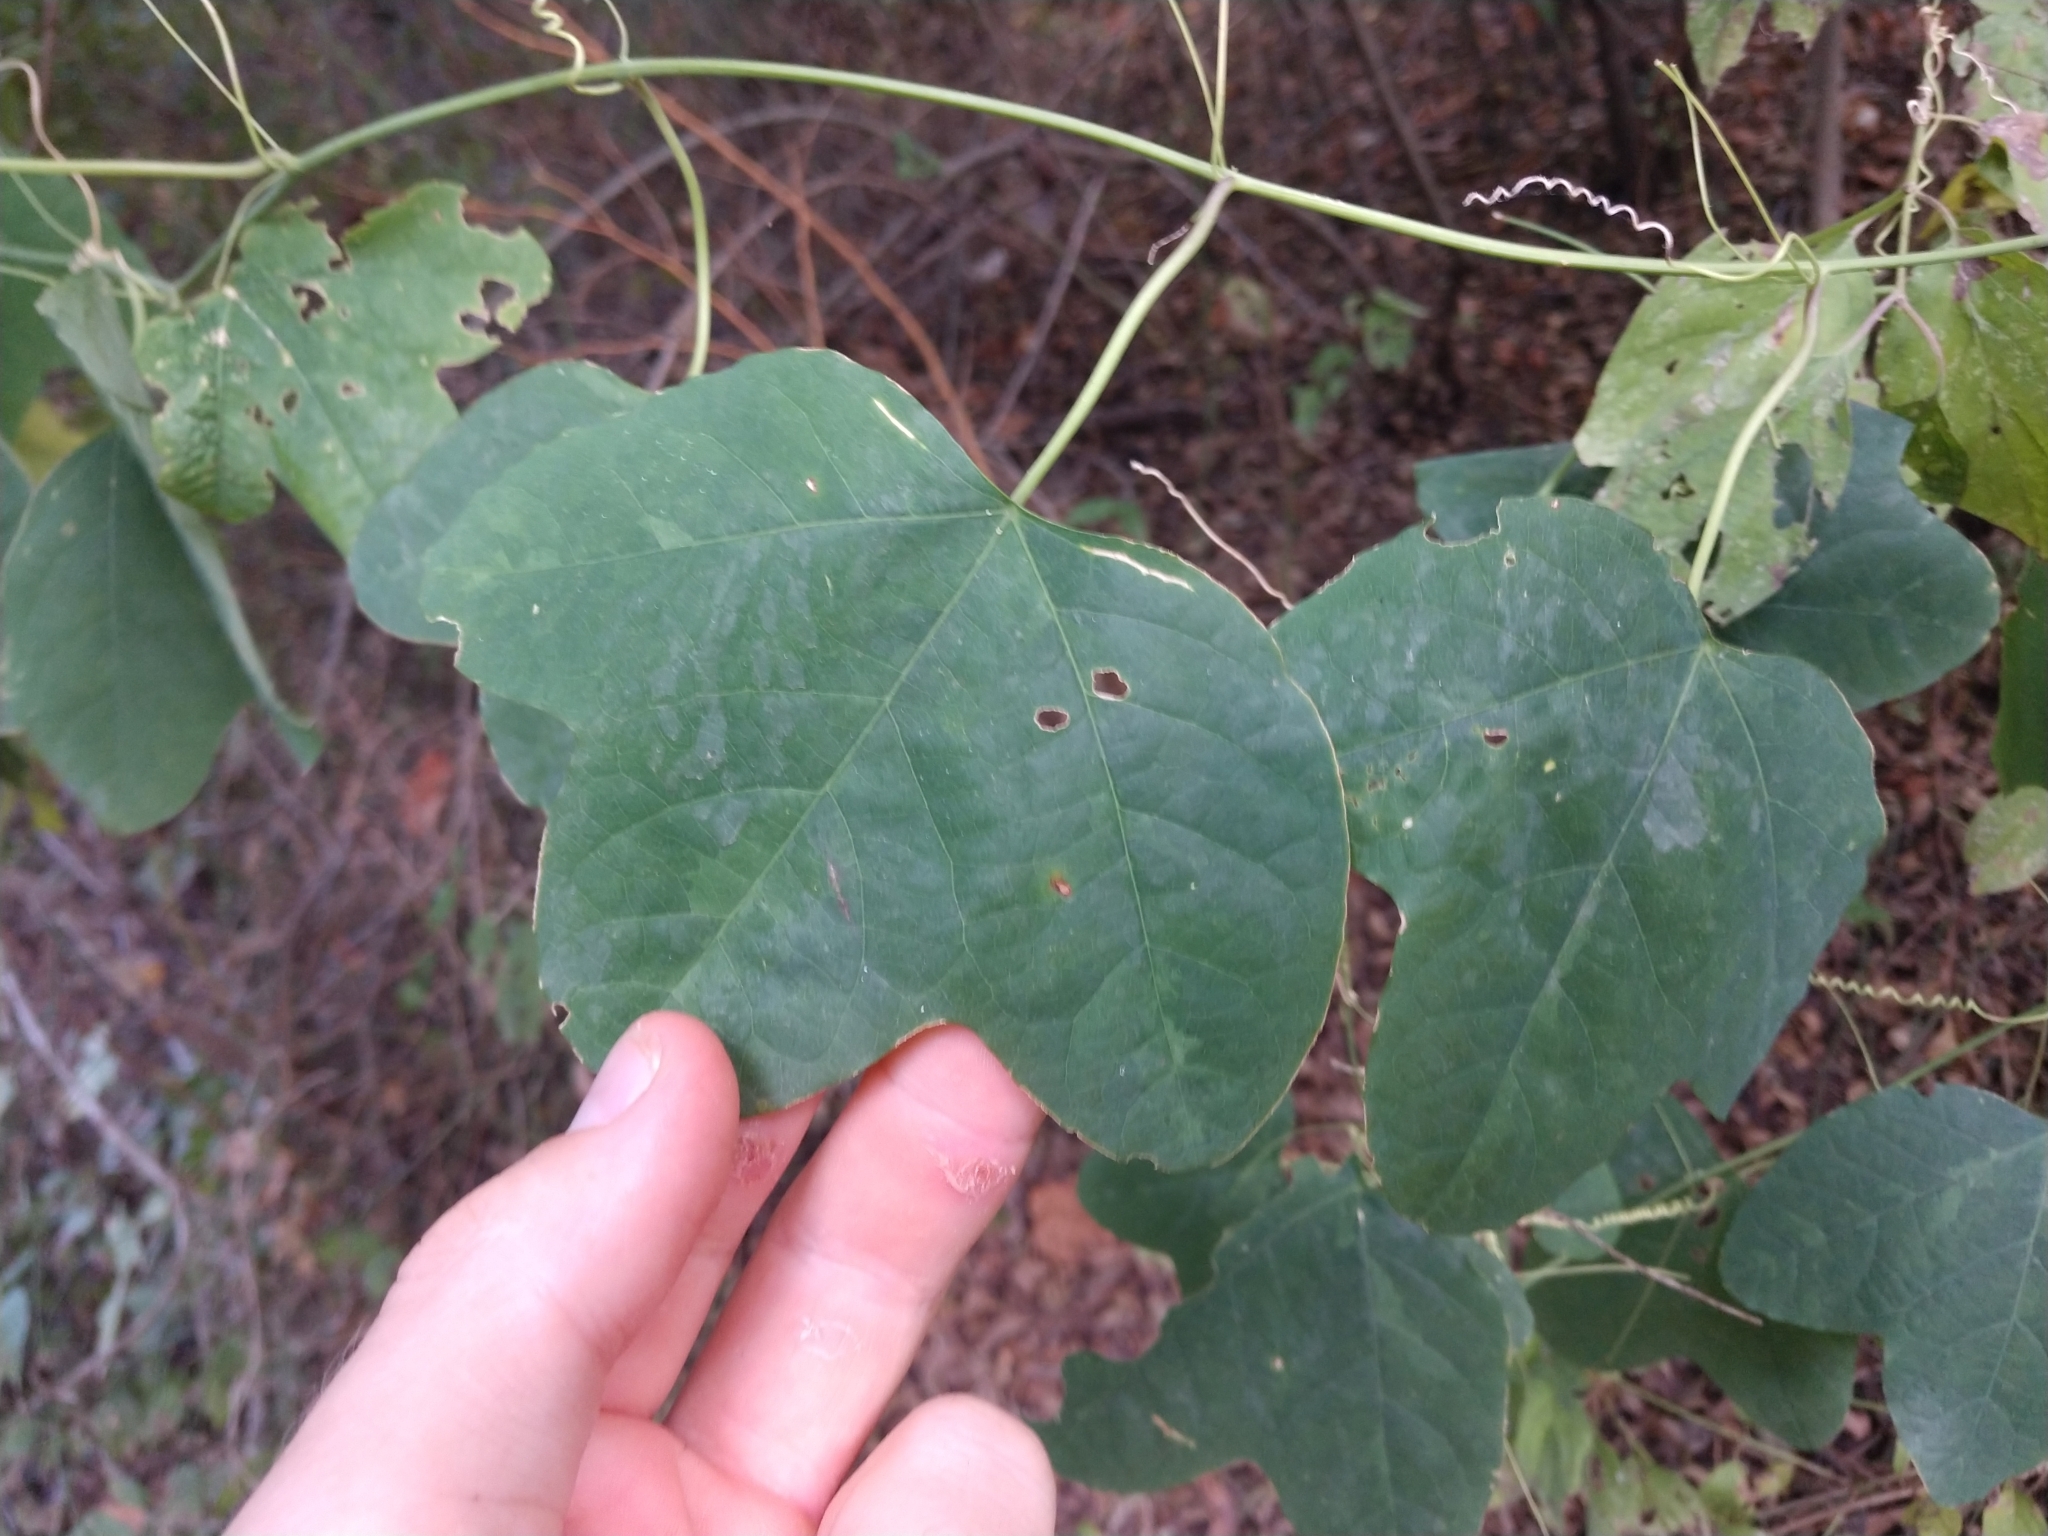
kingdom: Plantae
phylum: Tracheophyta
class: Magnoliopsida
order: Malpighiales
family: Passifloraceae
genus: Passiflora
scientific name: Passiflora lutea
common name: Yellow passionflower
